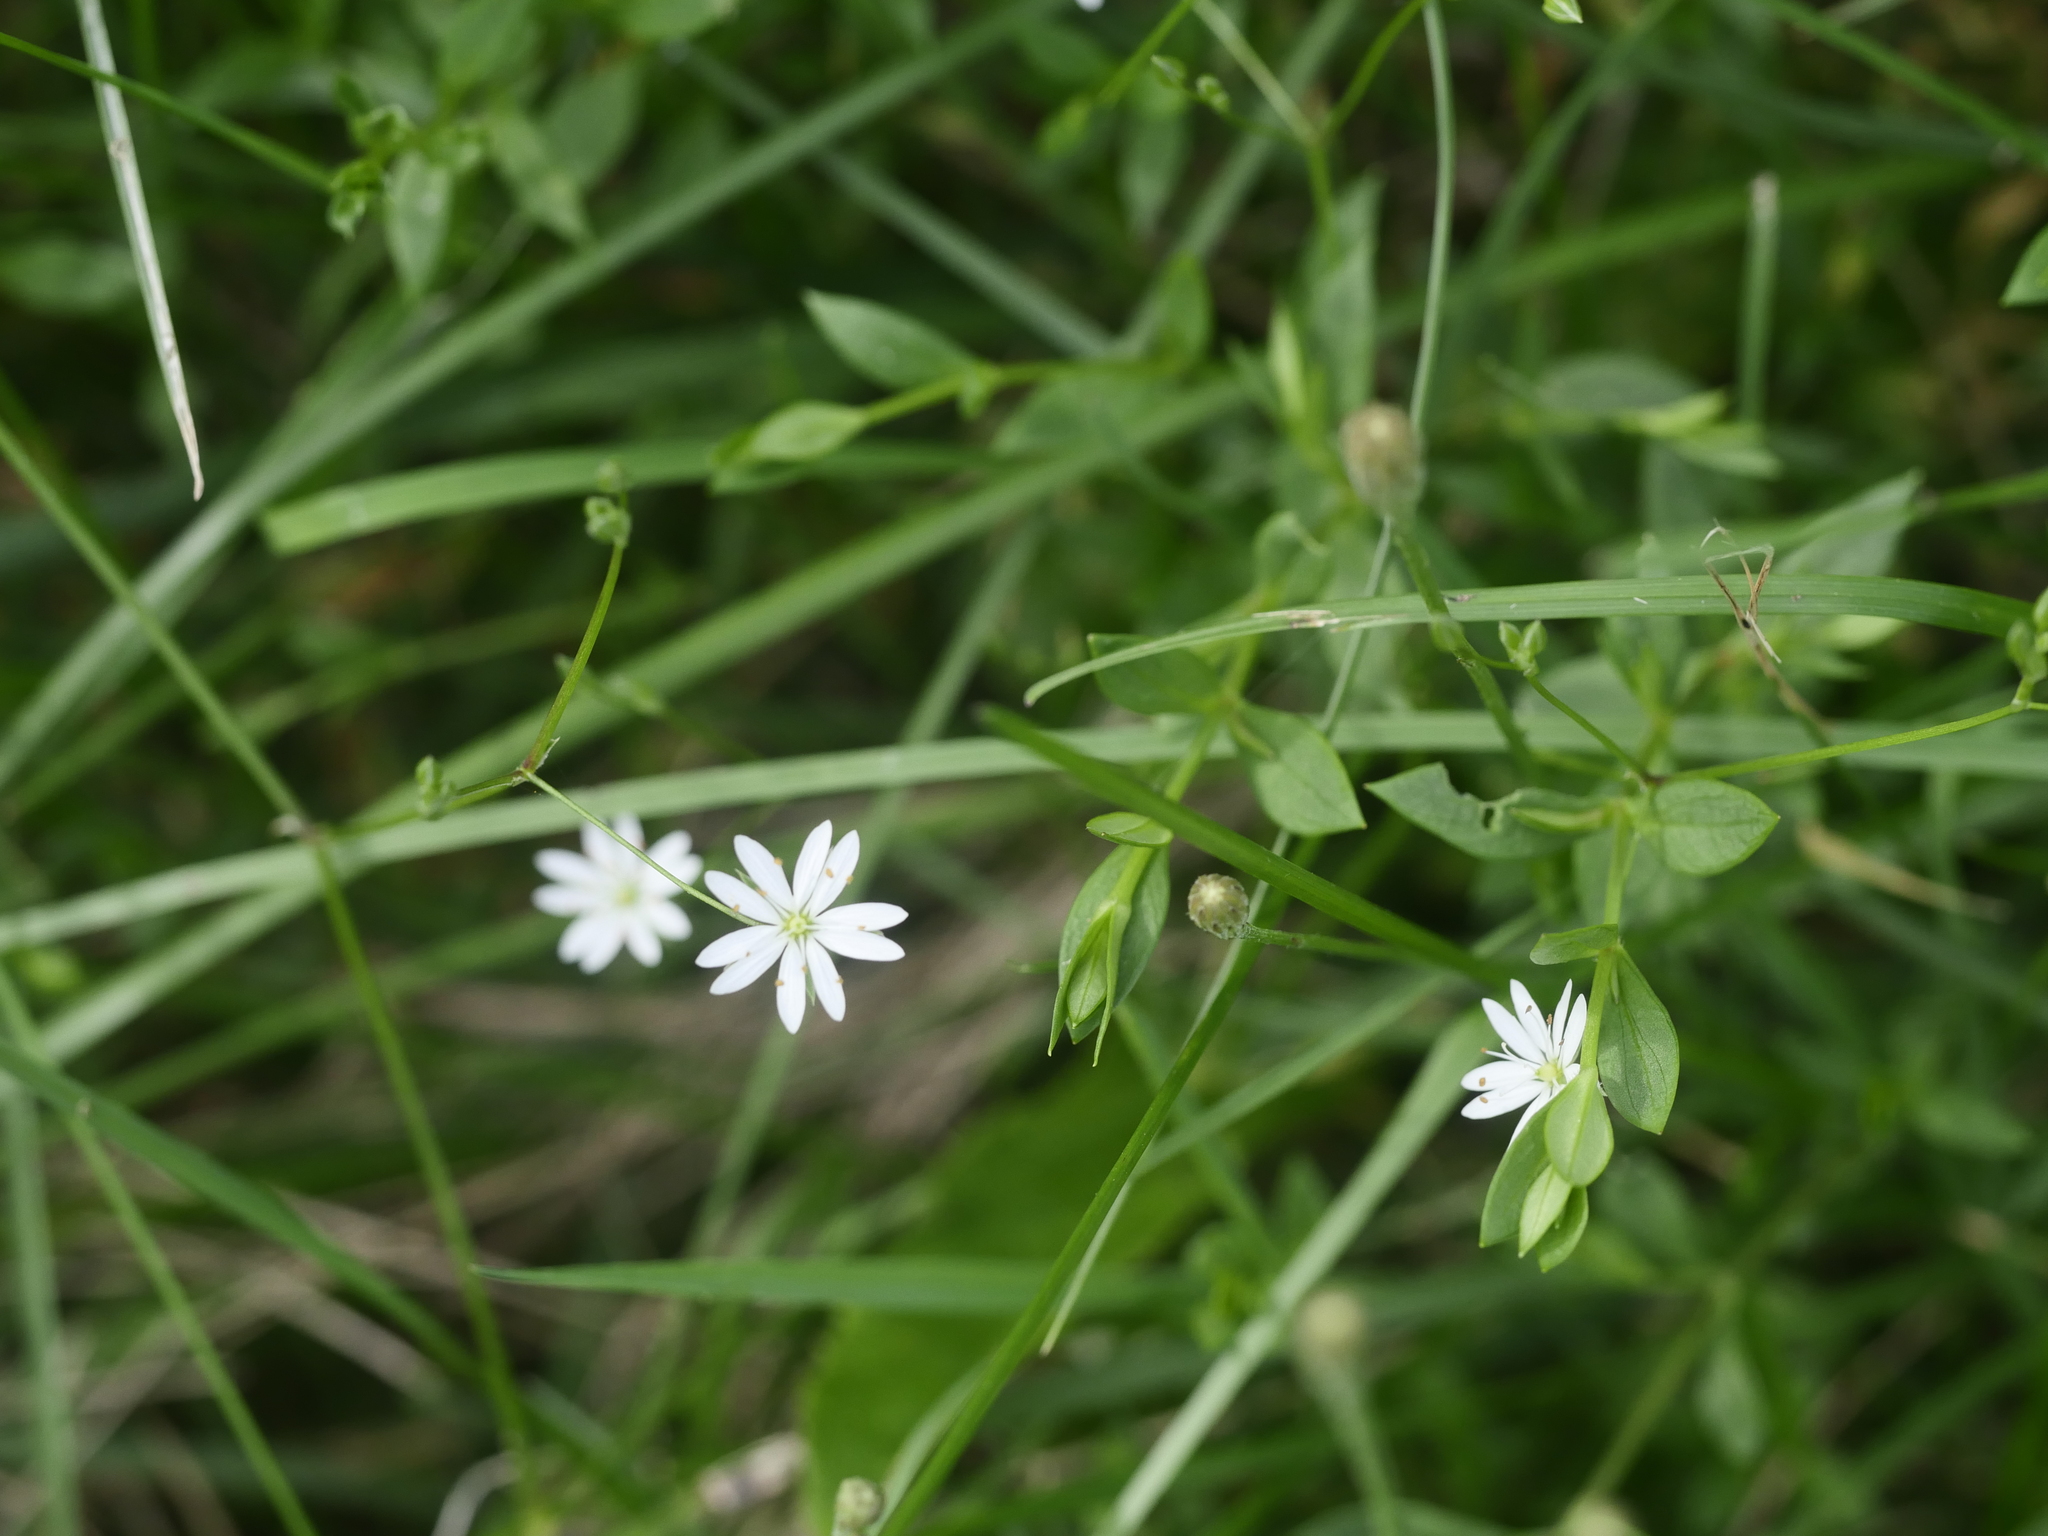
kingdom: Plantae
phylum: Tracheophyta
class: Magnoliopsida
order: Caryophyllales
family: Caryophyllaceae
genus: Stellaria
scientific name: Stellaria graminea
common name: Grass-like starwort
